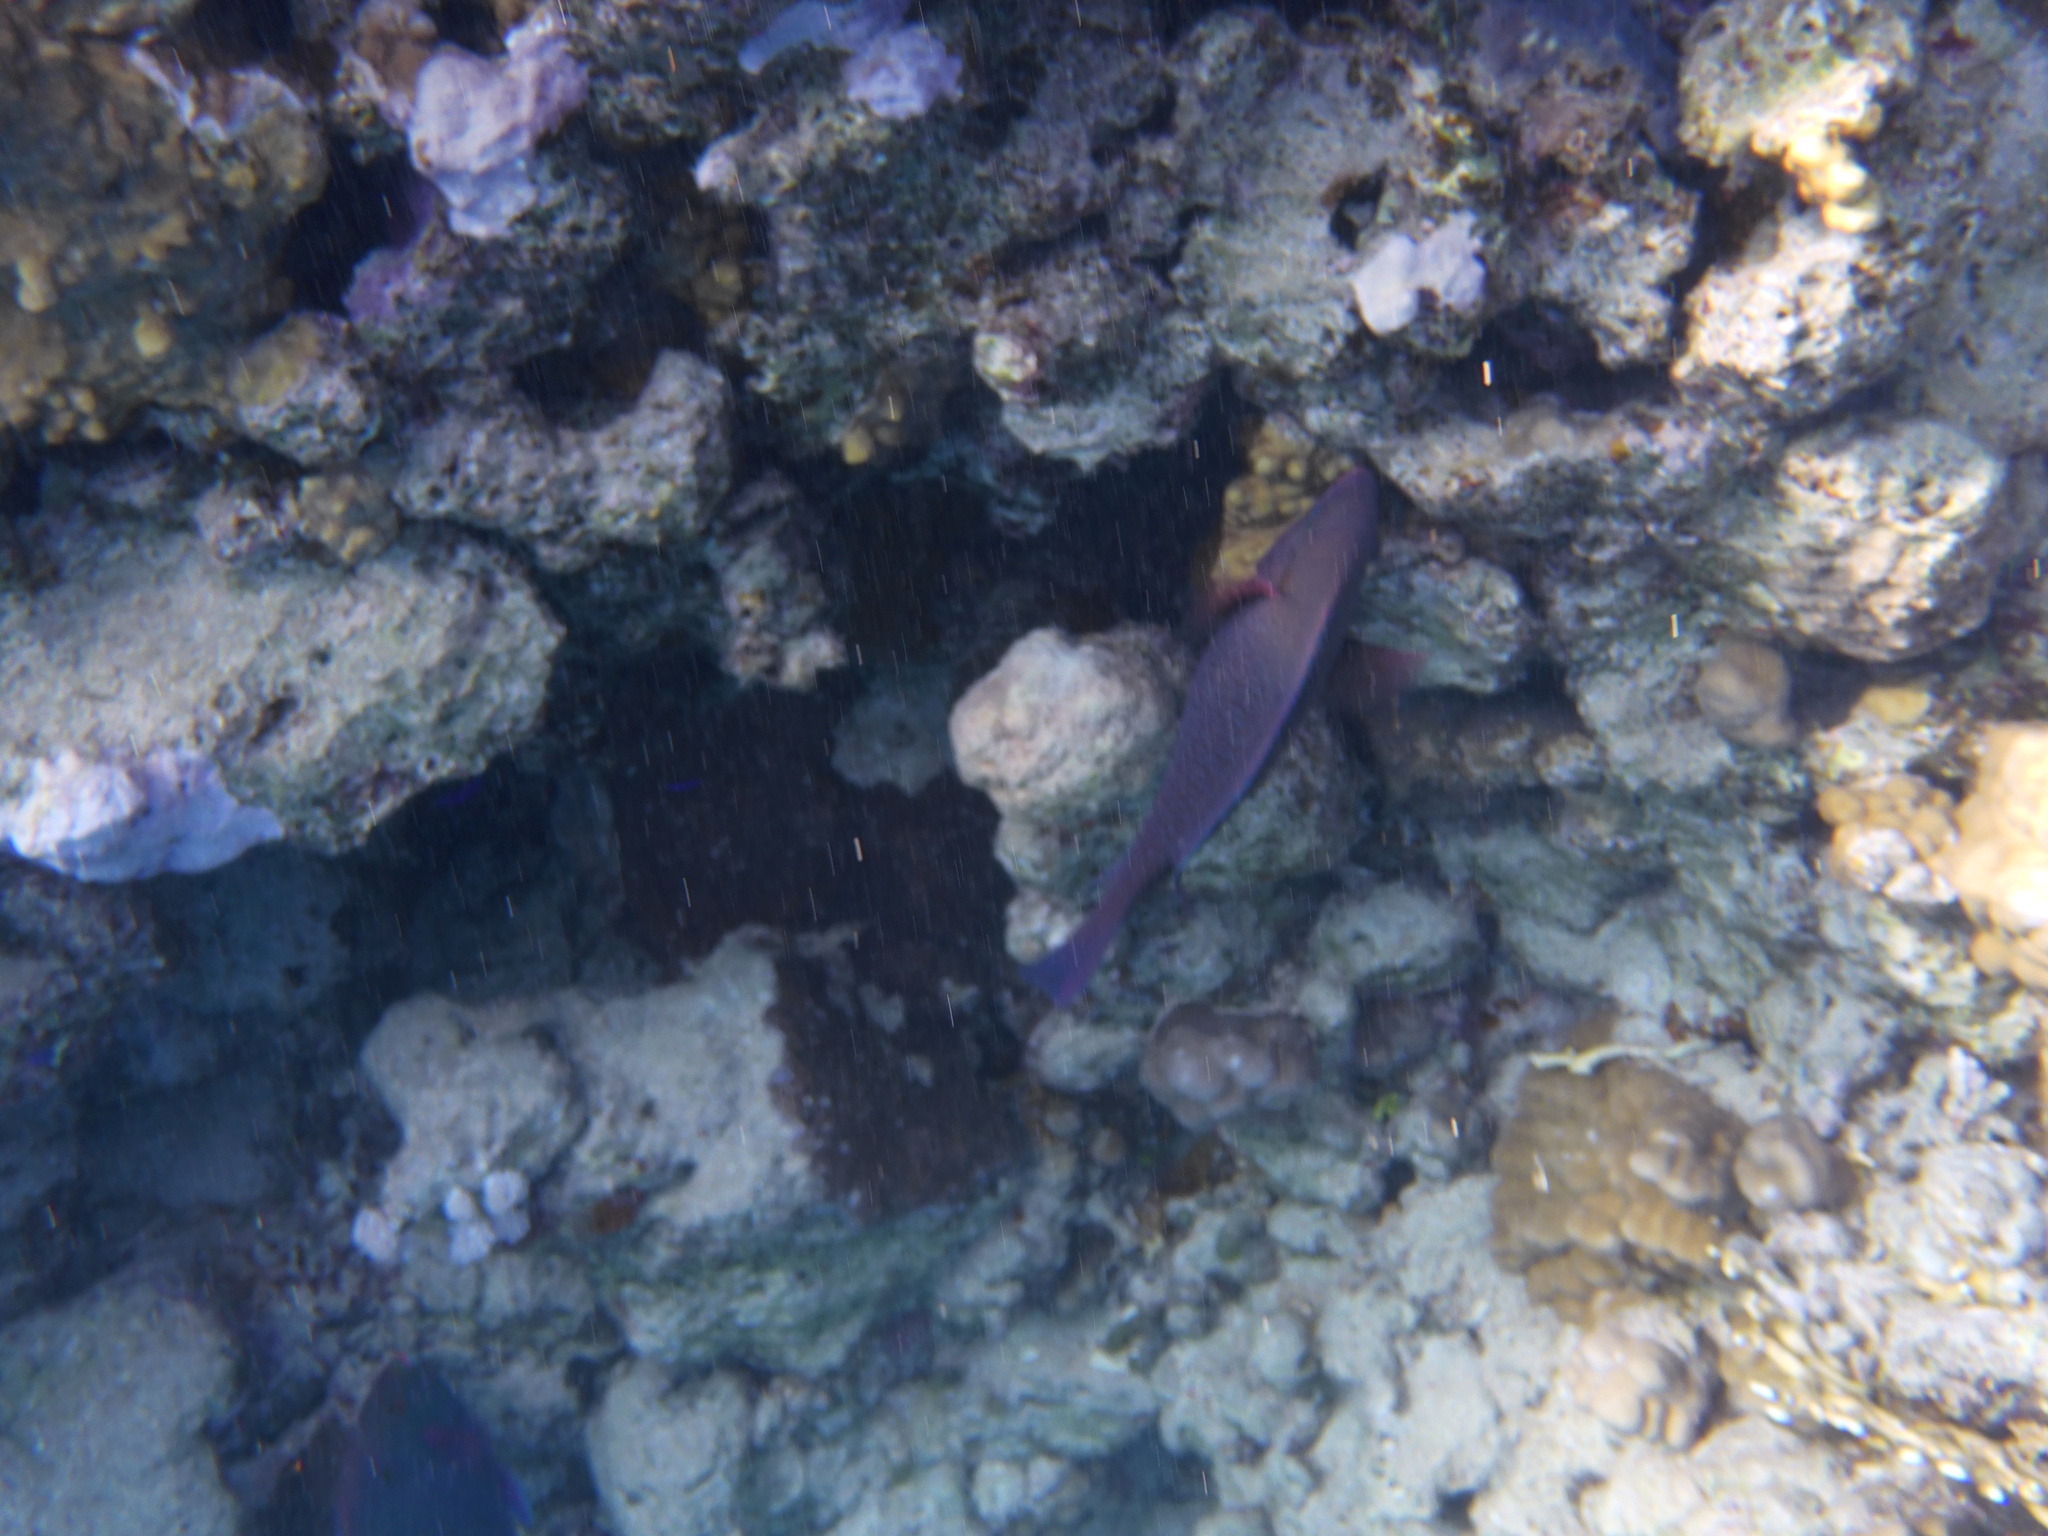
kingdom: Animalia
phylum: Chordata
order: Perciformes
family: Scaridae
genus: Scarus
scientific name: Scarus niger
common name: Dusky parrotfish
